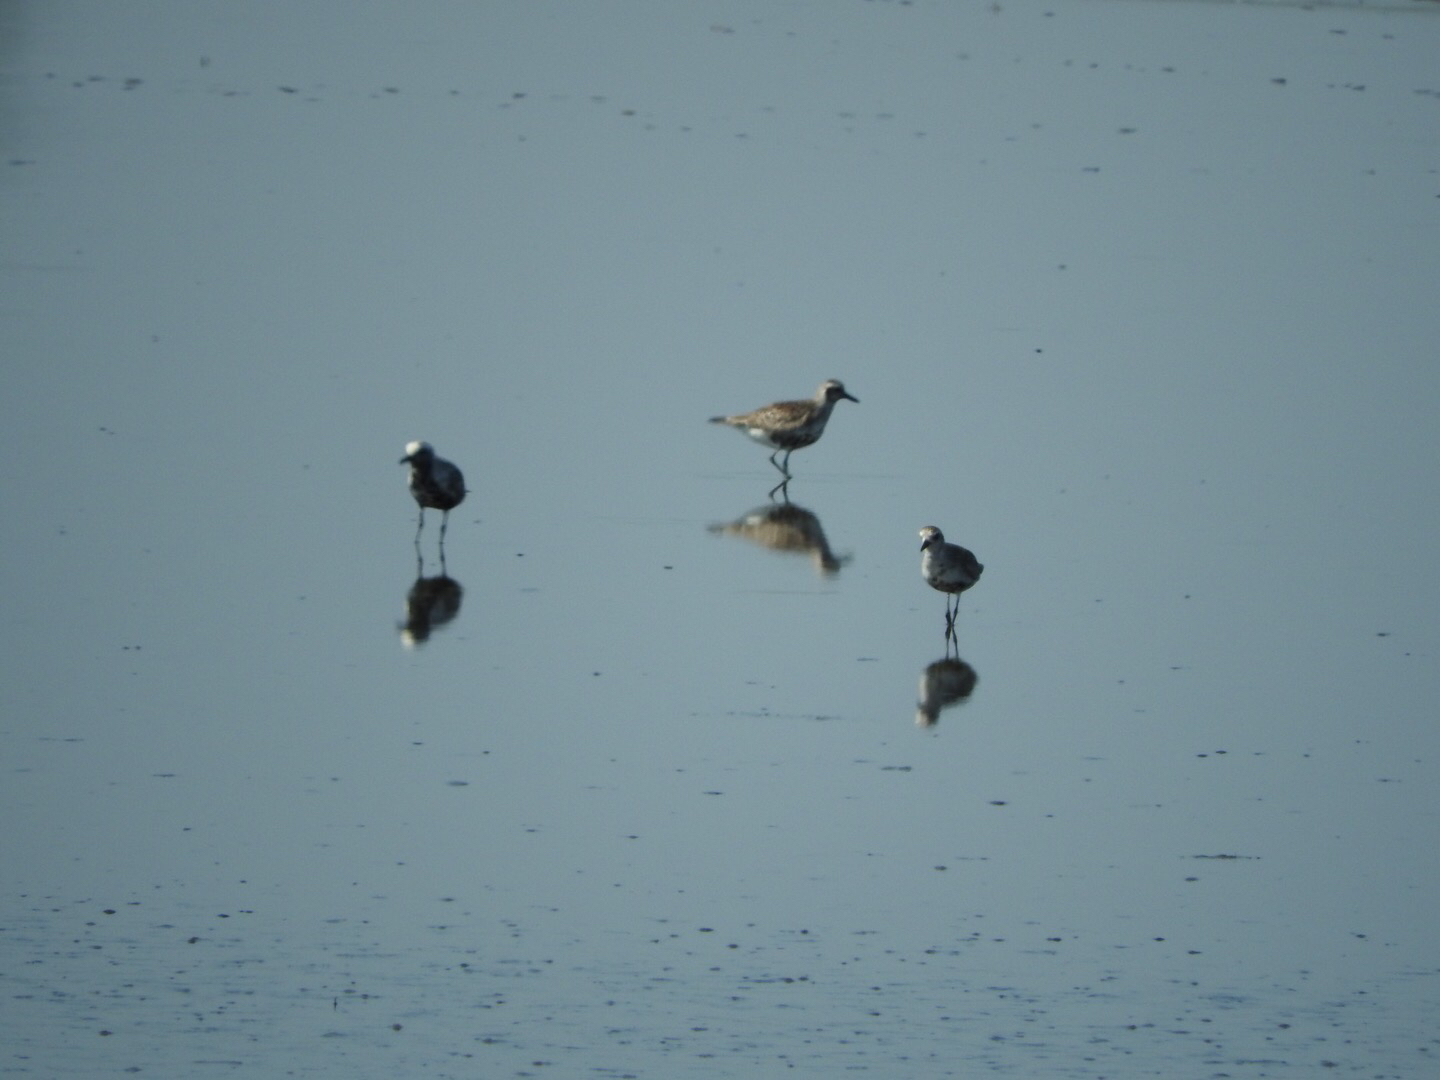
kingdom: Animalia
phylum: Chordata
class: Aves
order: Charadriiformes
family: Charadriidae
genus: Pluvialis
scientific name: Pluvialis squatarola
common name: Grey plover
